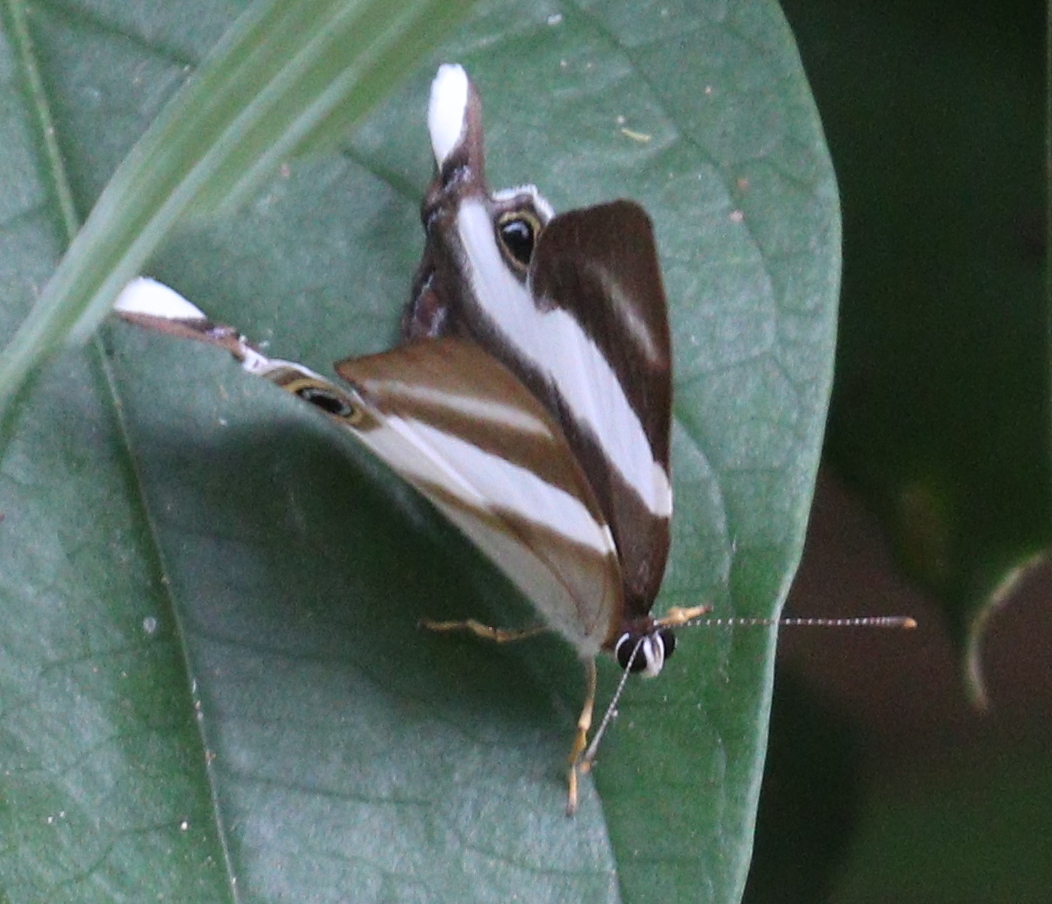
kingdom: Animalia
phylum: Arthropoda
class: Insecta
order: Lepidoptera
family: Riodinidae
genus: Afriodinia
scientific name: Afriodinia
